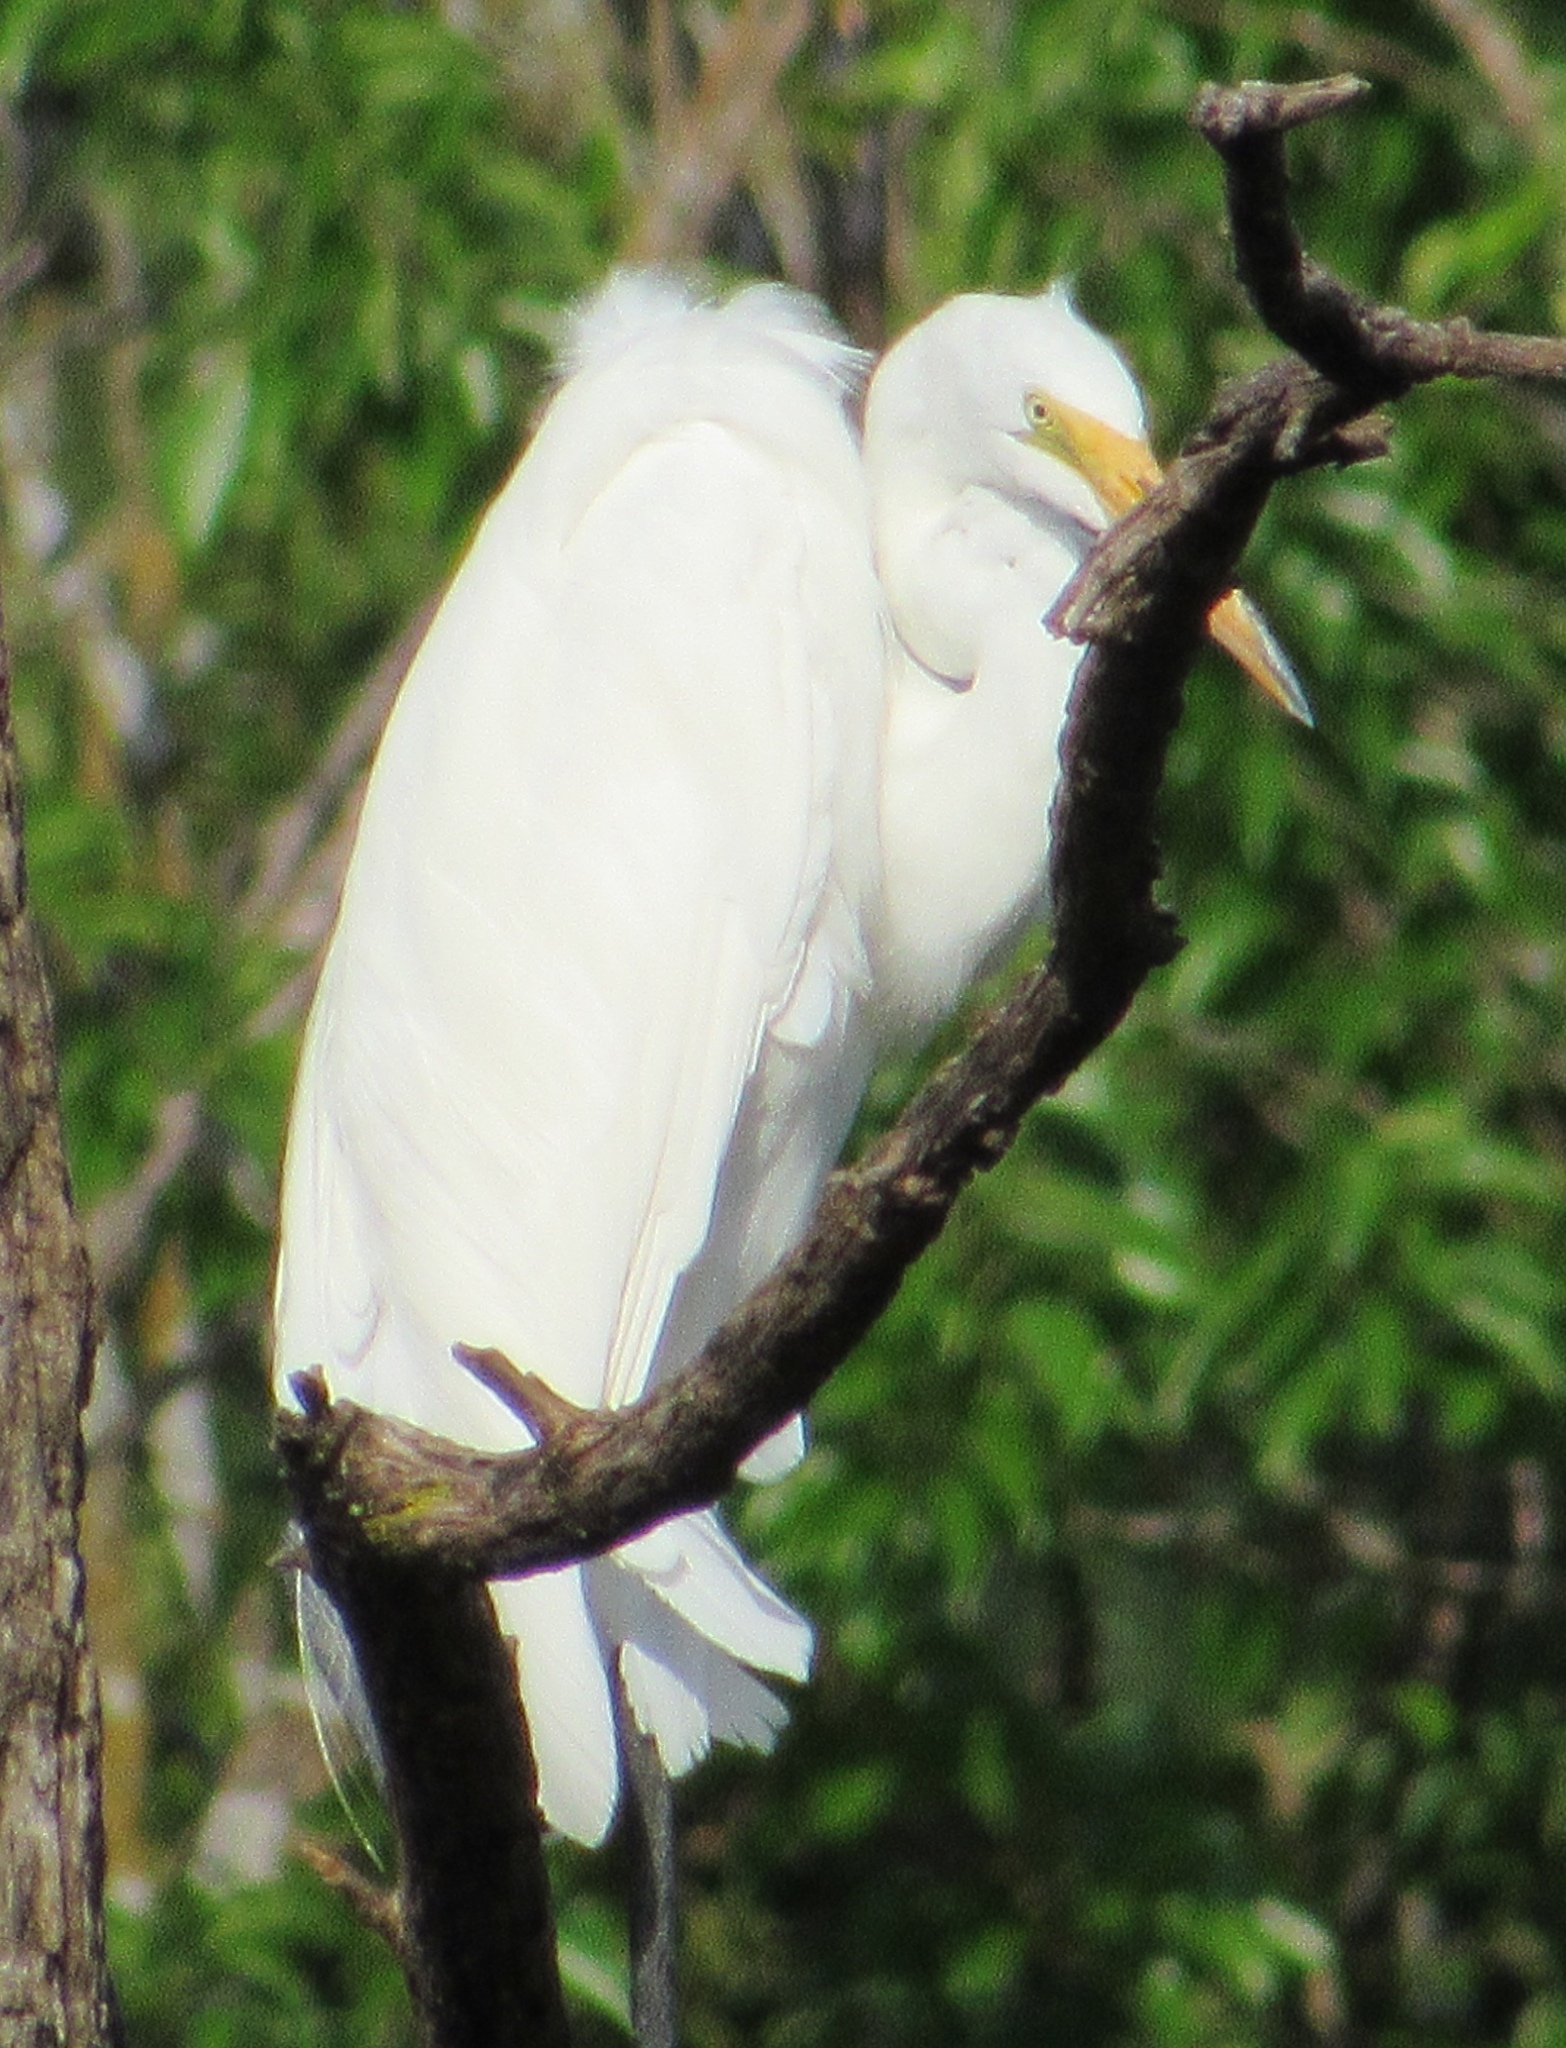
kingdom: Animalia
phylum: Chordata
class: Aves
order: Pelecaniformes
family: Ardeidae
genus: Ardea
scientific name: Ardea alba
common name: Great egret
